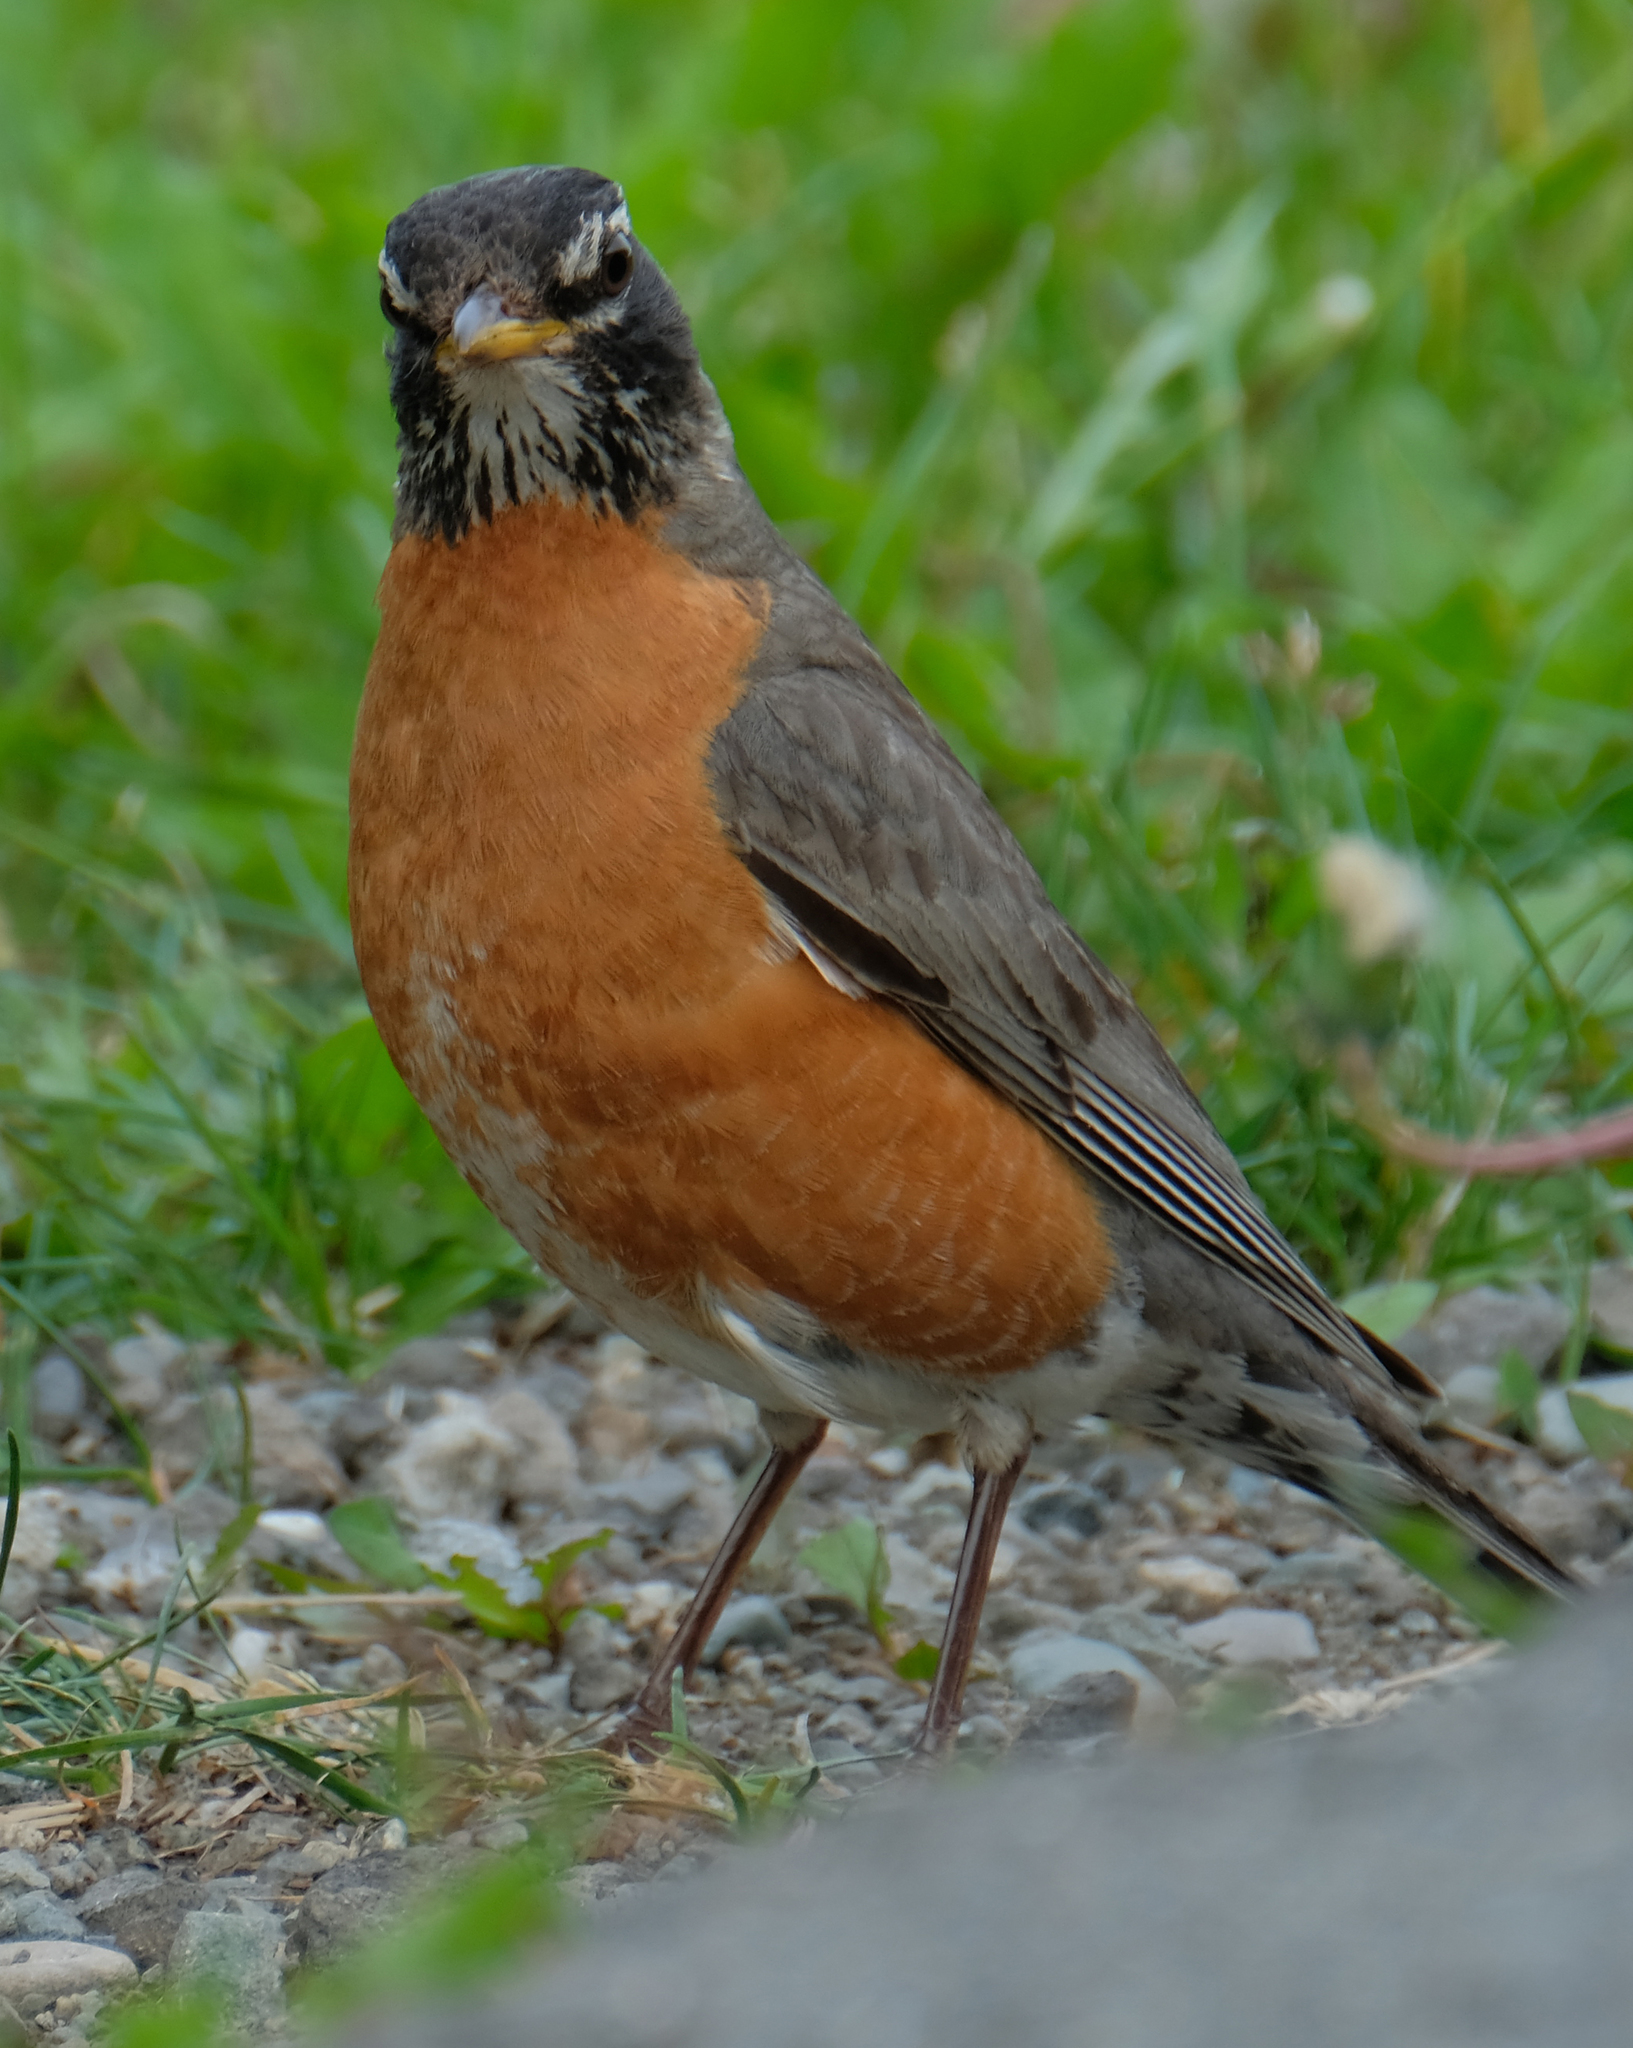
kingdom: Animalia
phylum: Chordata
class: Aves
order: Passeriformes
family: Turdidae
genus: Turdus
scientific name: Turdus migratorius
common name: American robin
